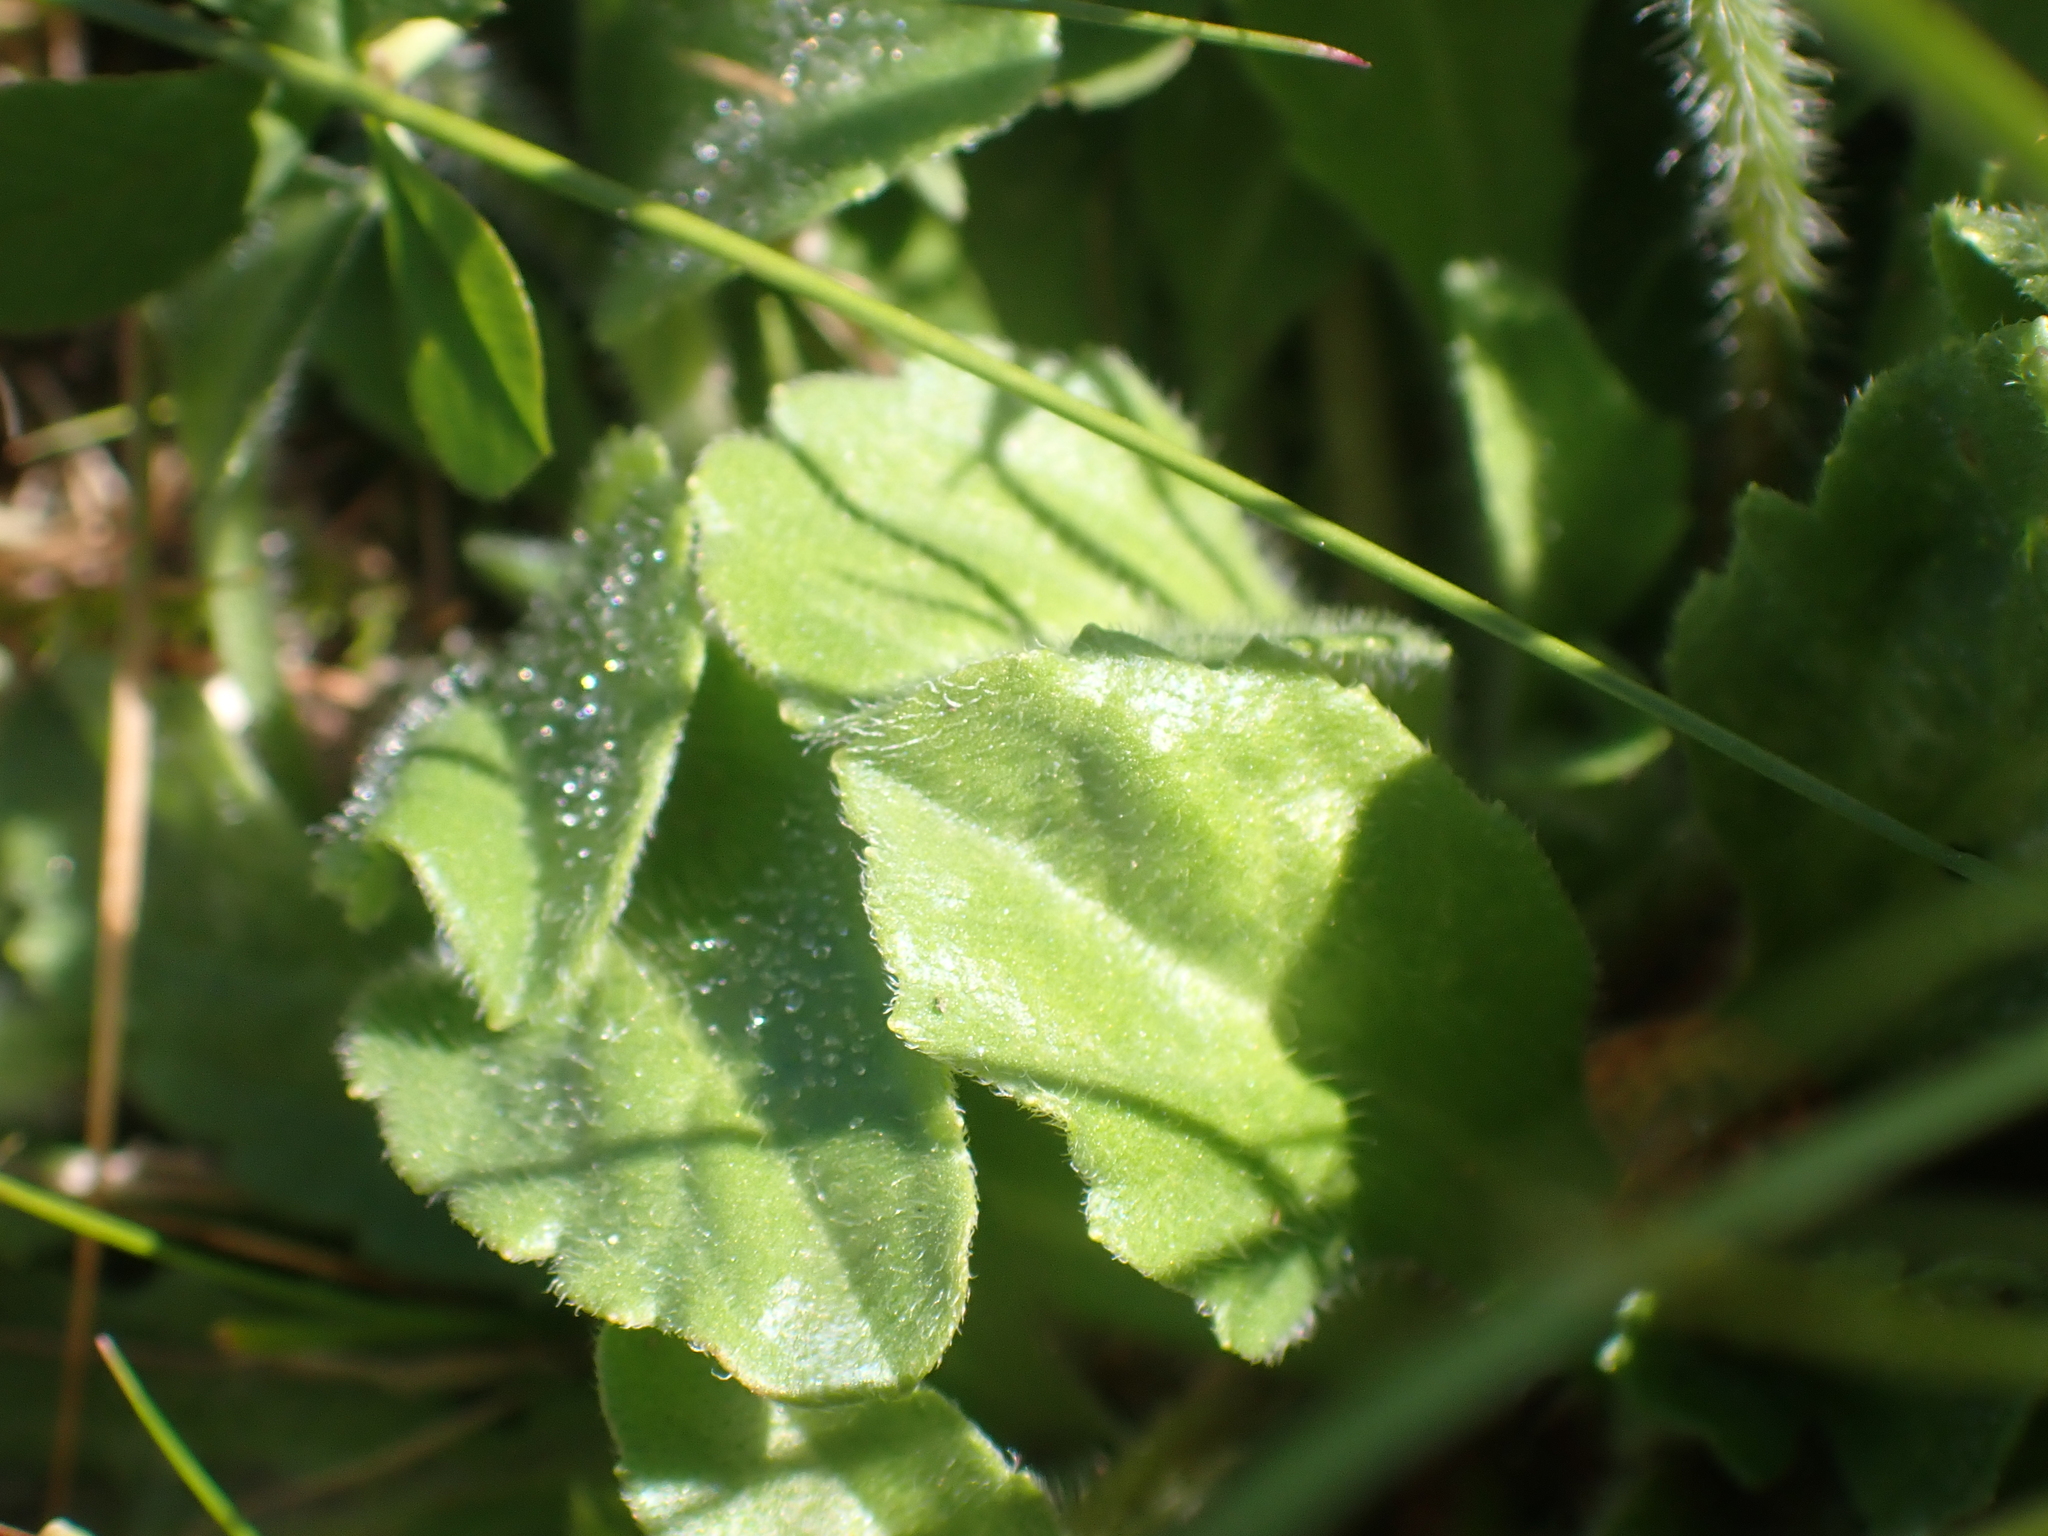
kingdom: Plantae
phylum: Tracheophyta
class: Magnoliopsida
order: Asterales
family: Asteraceae
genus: Bellis
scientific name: Bellis perennis
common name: Lawndaisy
